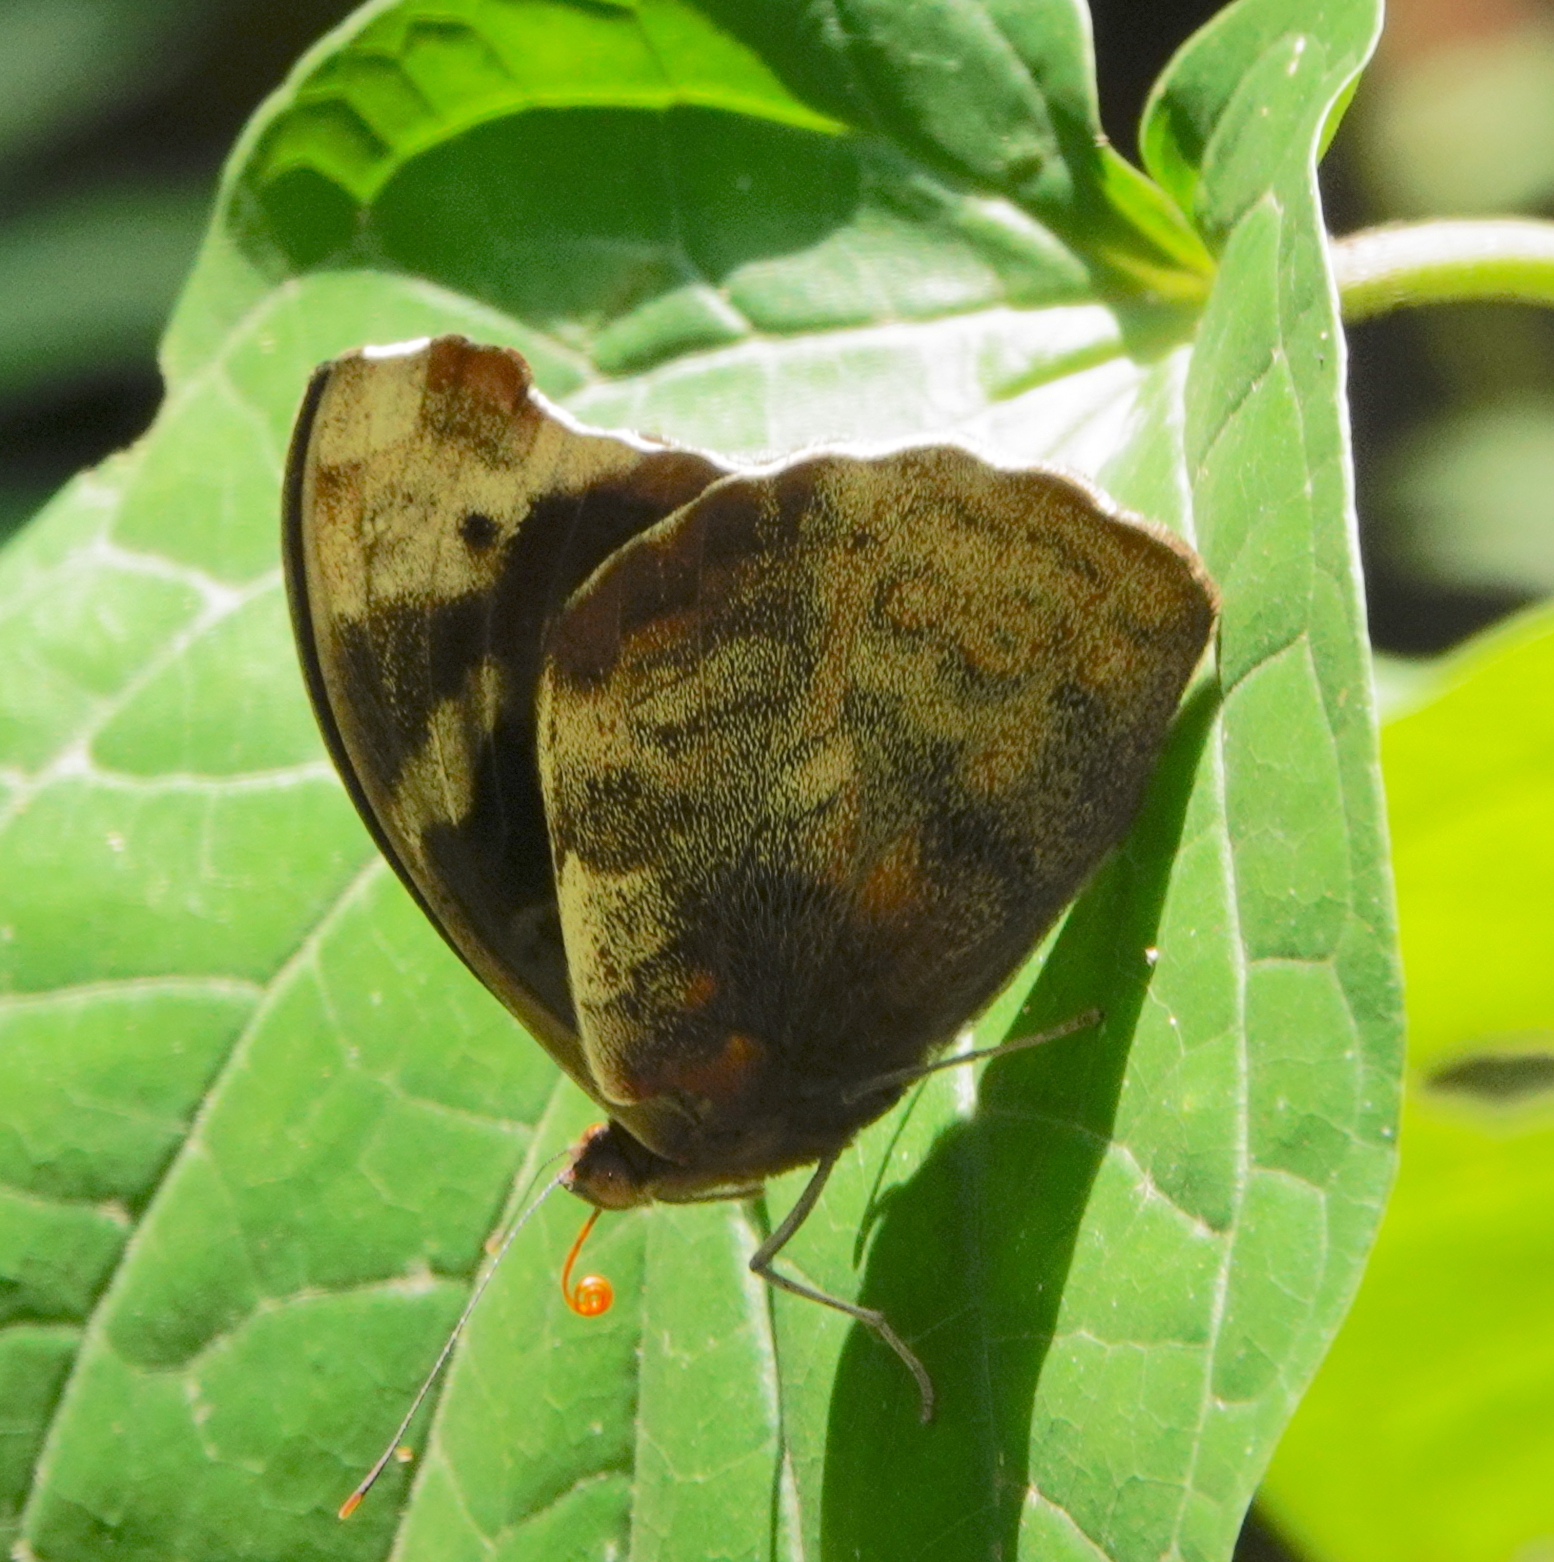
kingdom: Animalia
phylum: Arthropoda
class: Insecta
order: Lepidoptera
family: Nymphalidae
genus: Eunica
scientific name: Eunica sydonia
